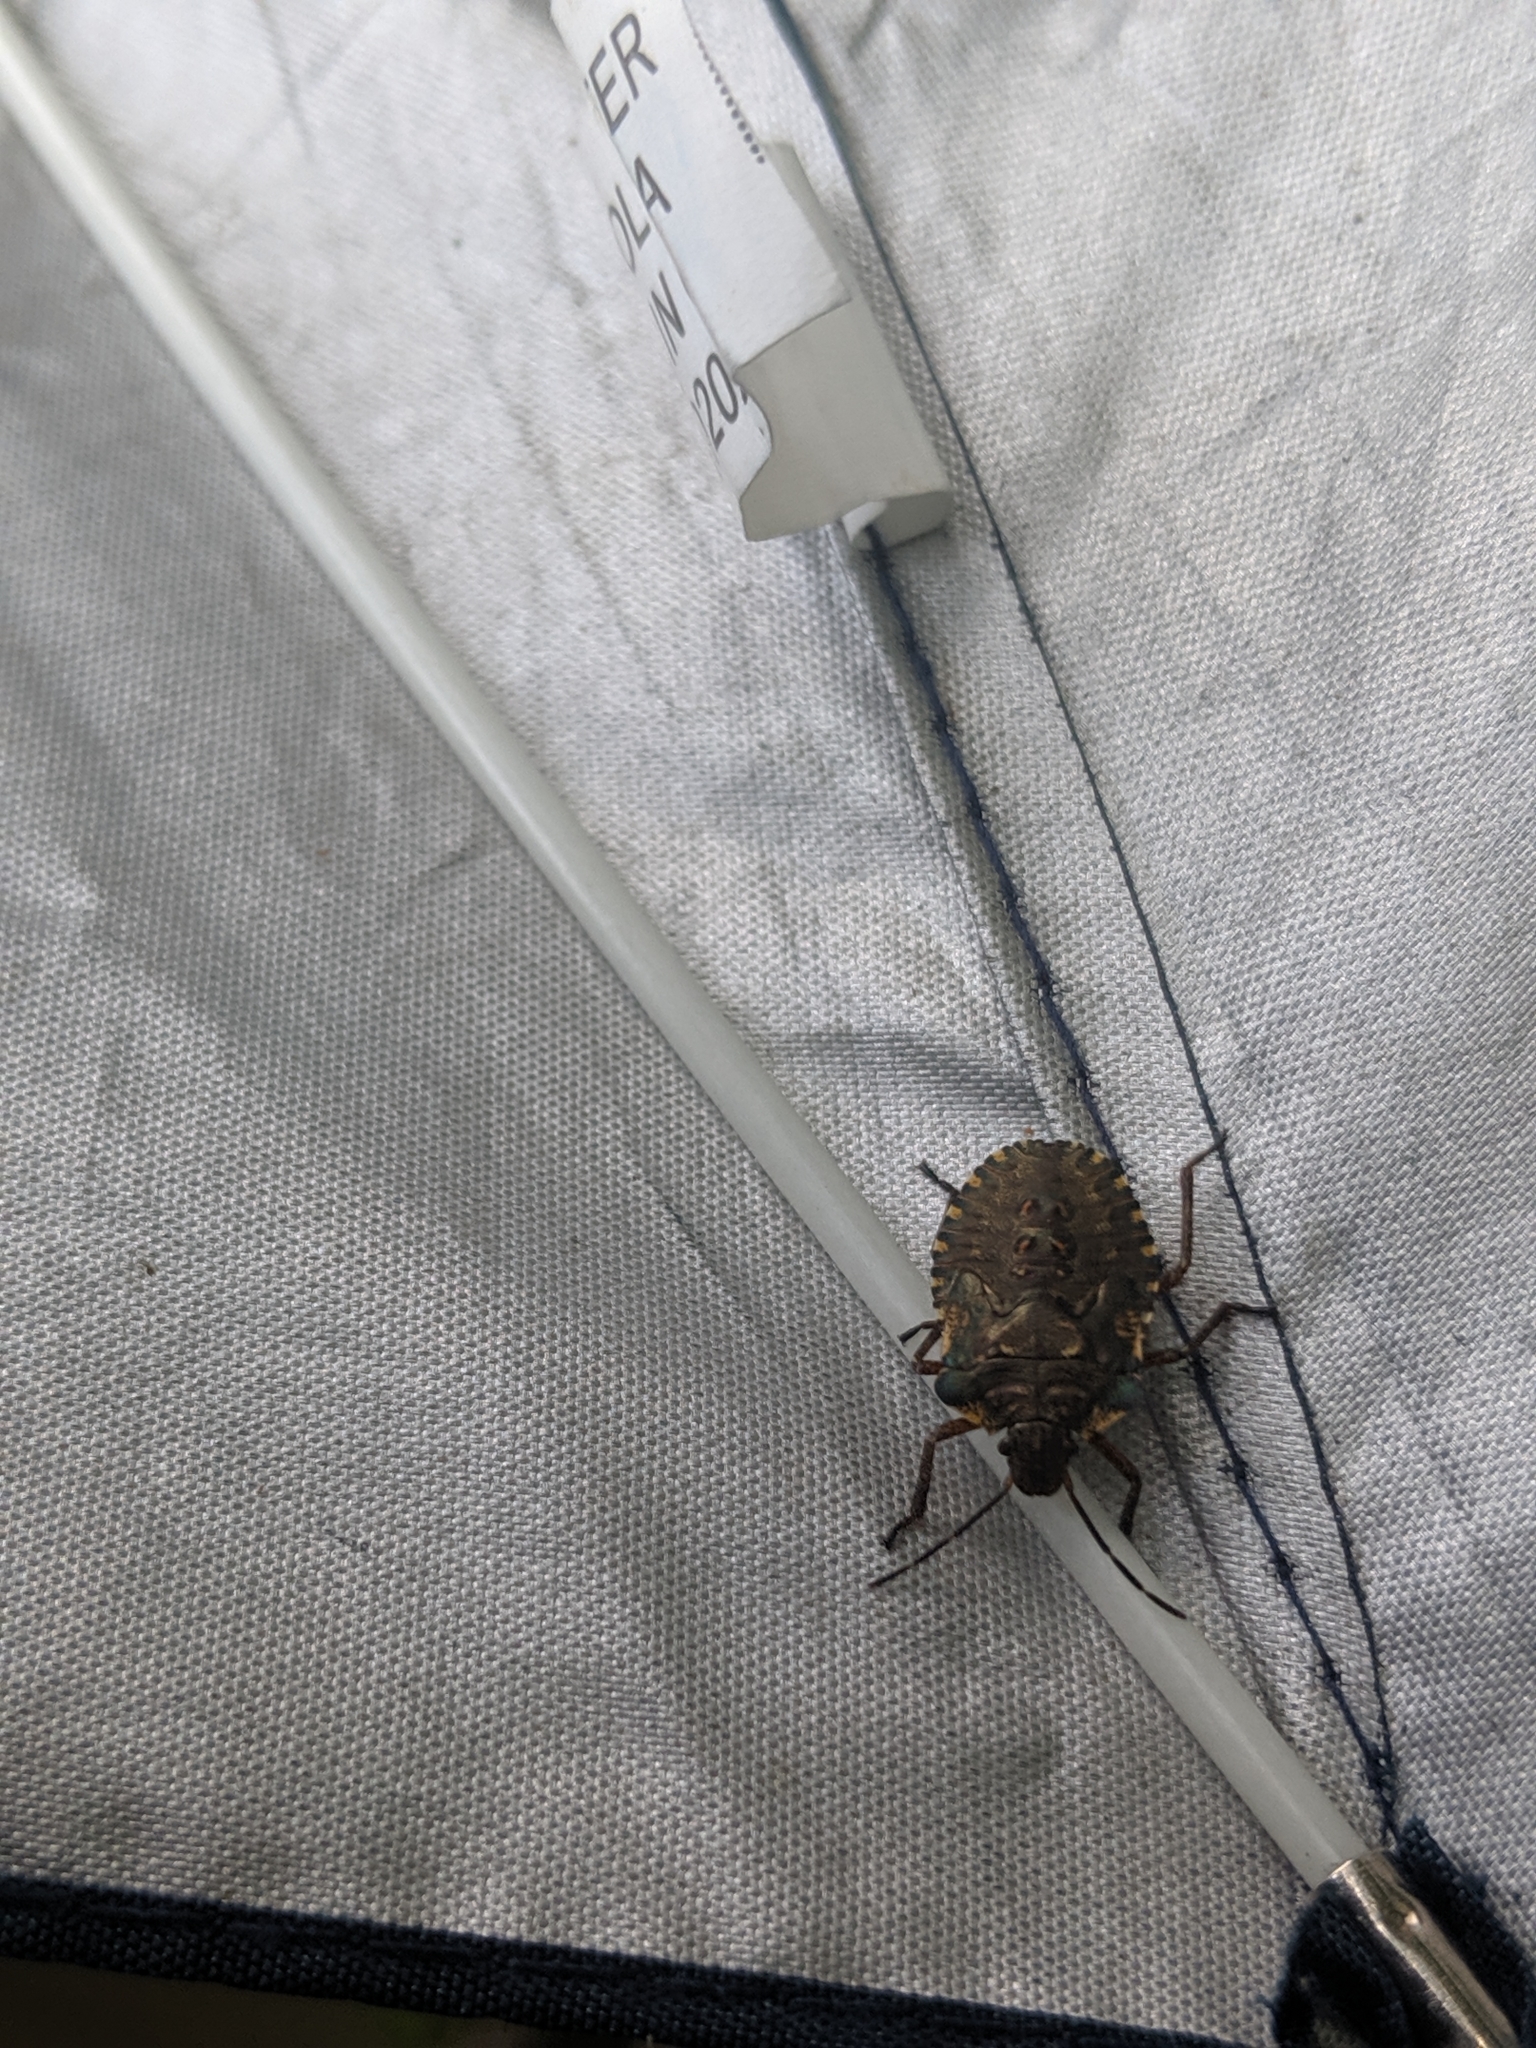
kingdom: Animalia
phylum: Arthropoda
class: Insecta
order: Hemiptera
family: Pentatomidae
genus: Pentatoma
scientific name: Pentatoma rufipes
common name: Forest bug
